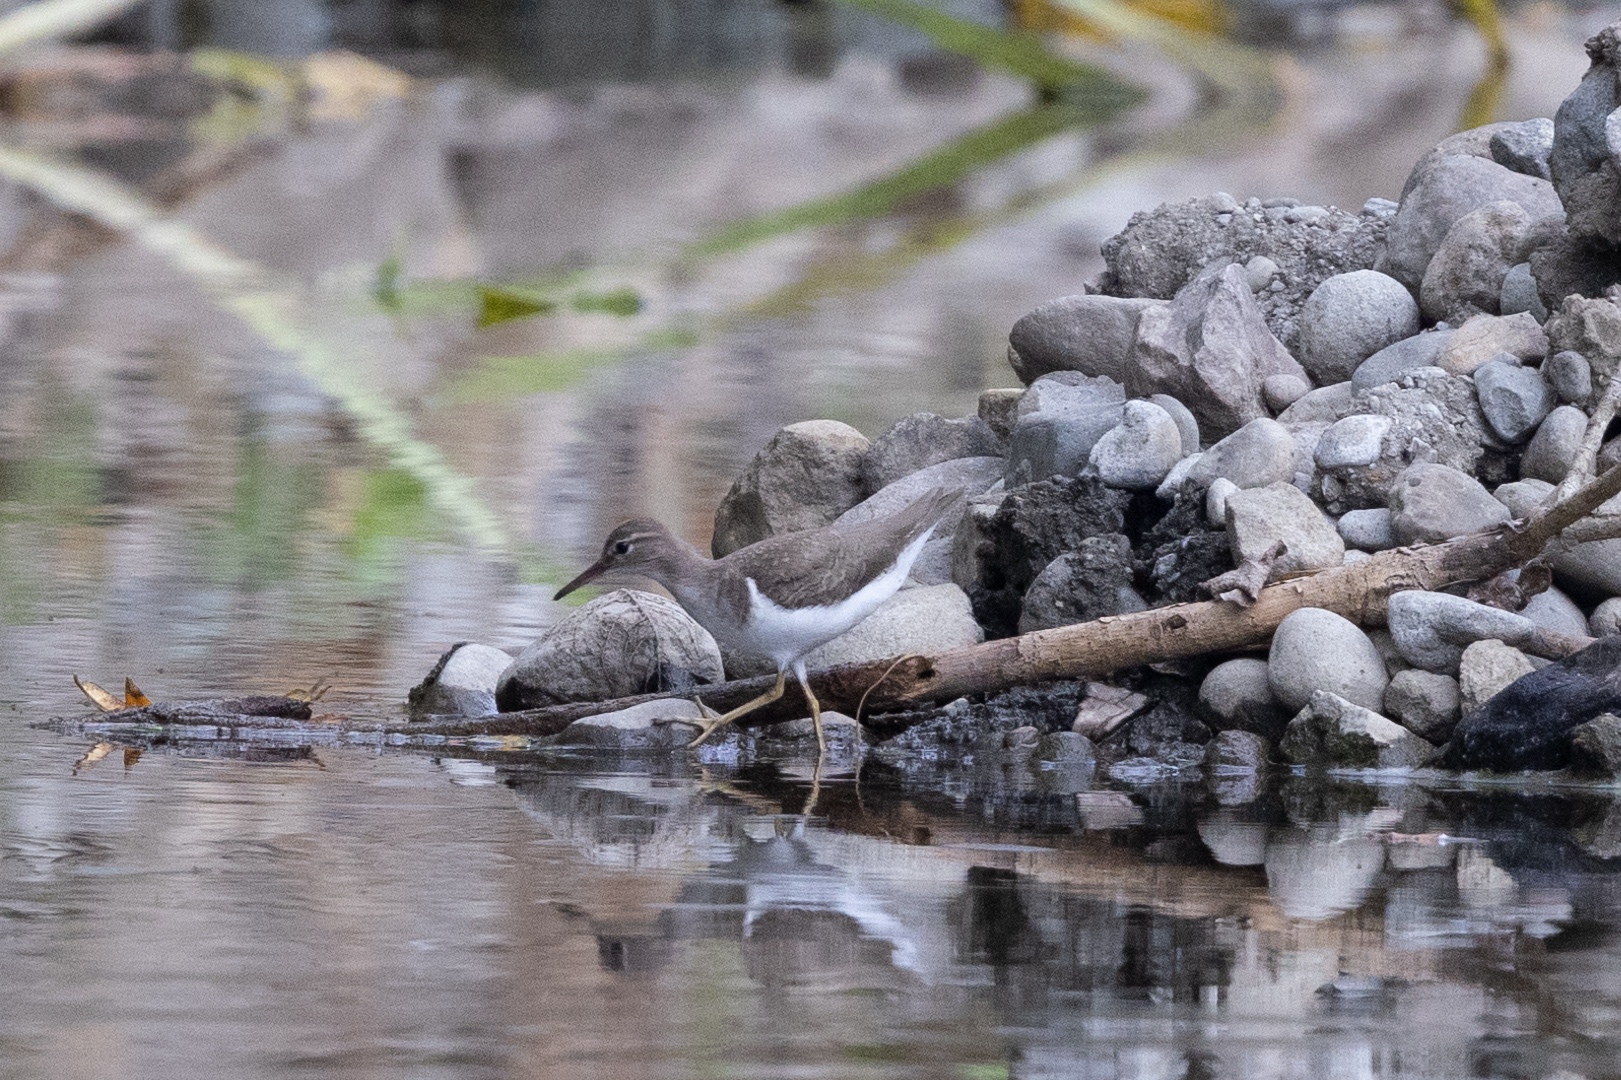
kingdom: Animalia
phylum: Chordata
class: Aves
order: Charadriiformes
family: Scolopacidae
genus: Actitis
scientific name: Actitis macularius
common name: Spotted sandpiper
